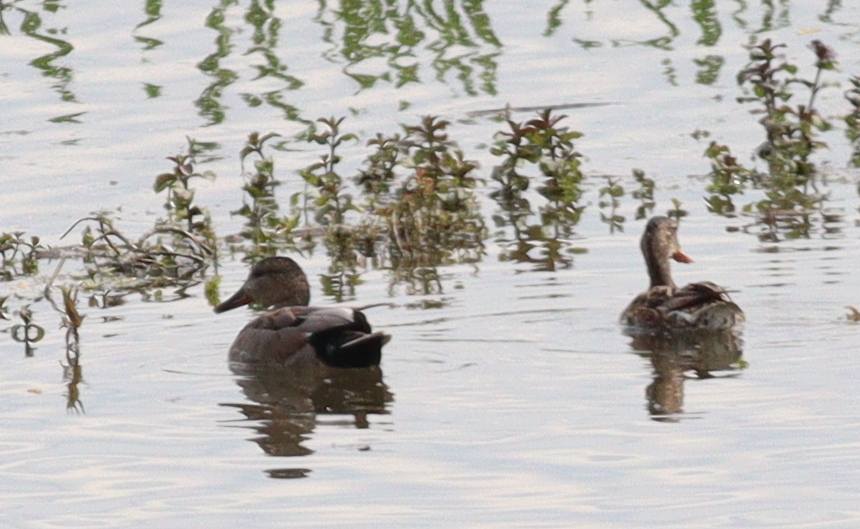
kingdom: Animalia
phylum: Chordata
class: Aves
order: Anseriformes
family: Anatidae
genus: Mareca
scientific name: Mareca strepera
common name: Gadwall
